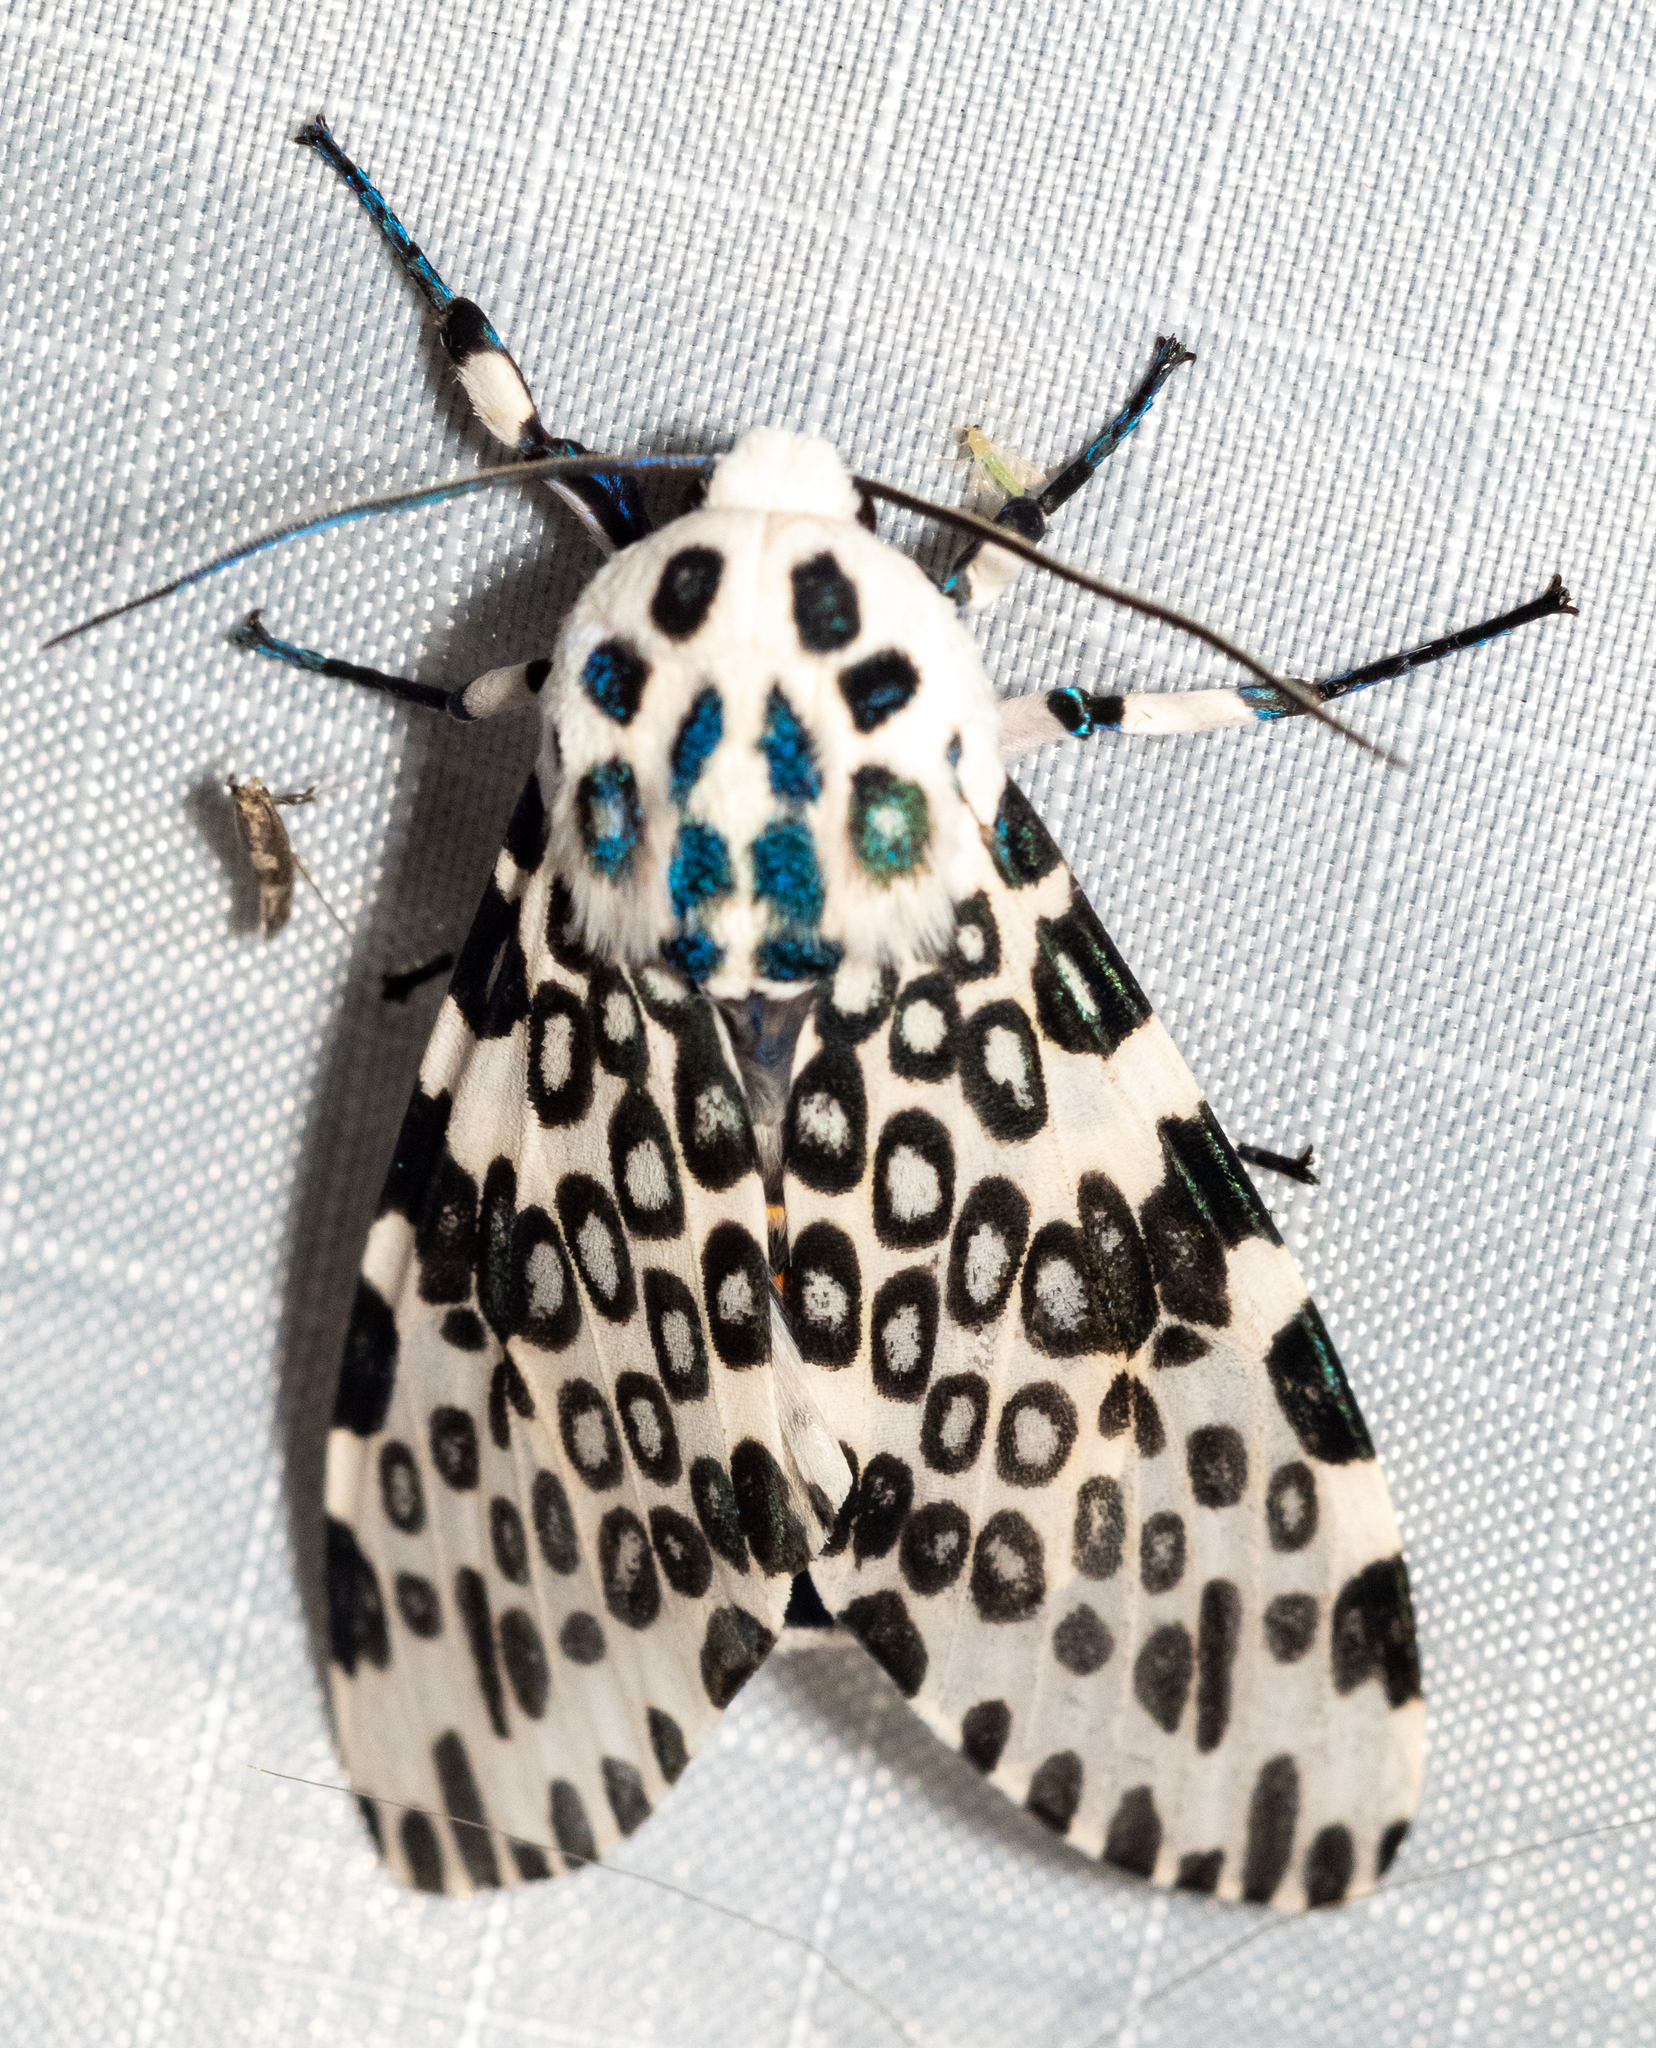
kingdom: Animalia
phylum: Arthropoda
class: Insecta
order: Lepidoptera
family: Erebidae
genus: Hypercompe
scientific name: Hypercompe scribonia
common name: Giant leopard moth
